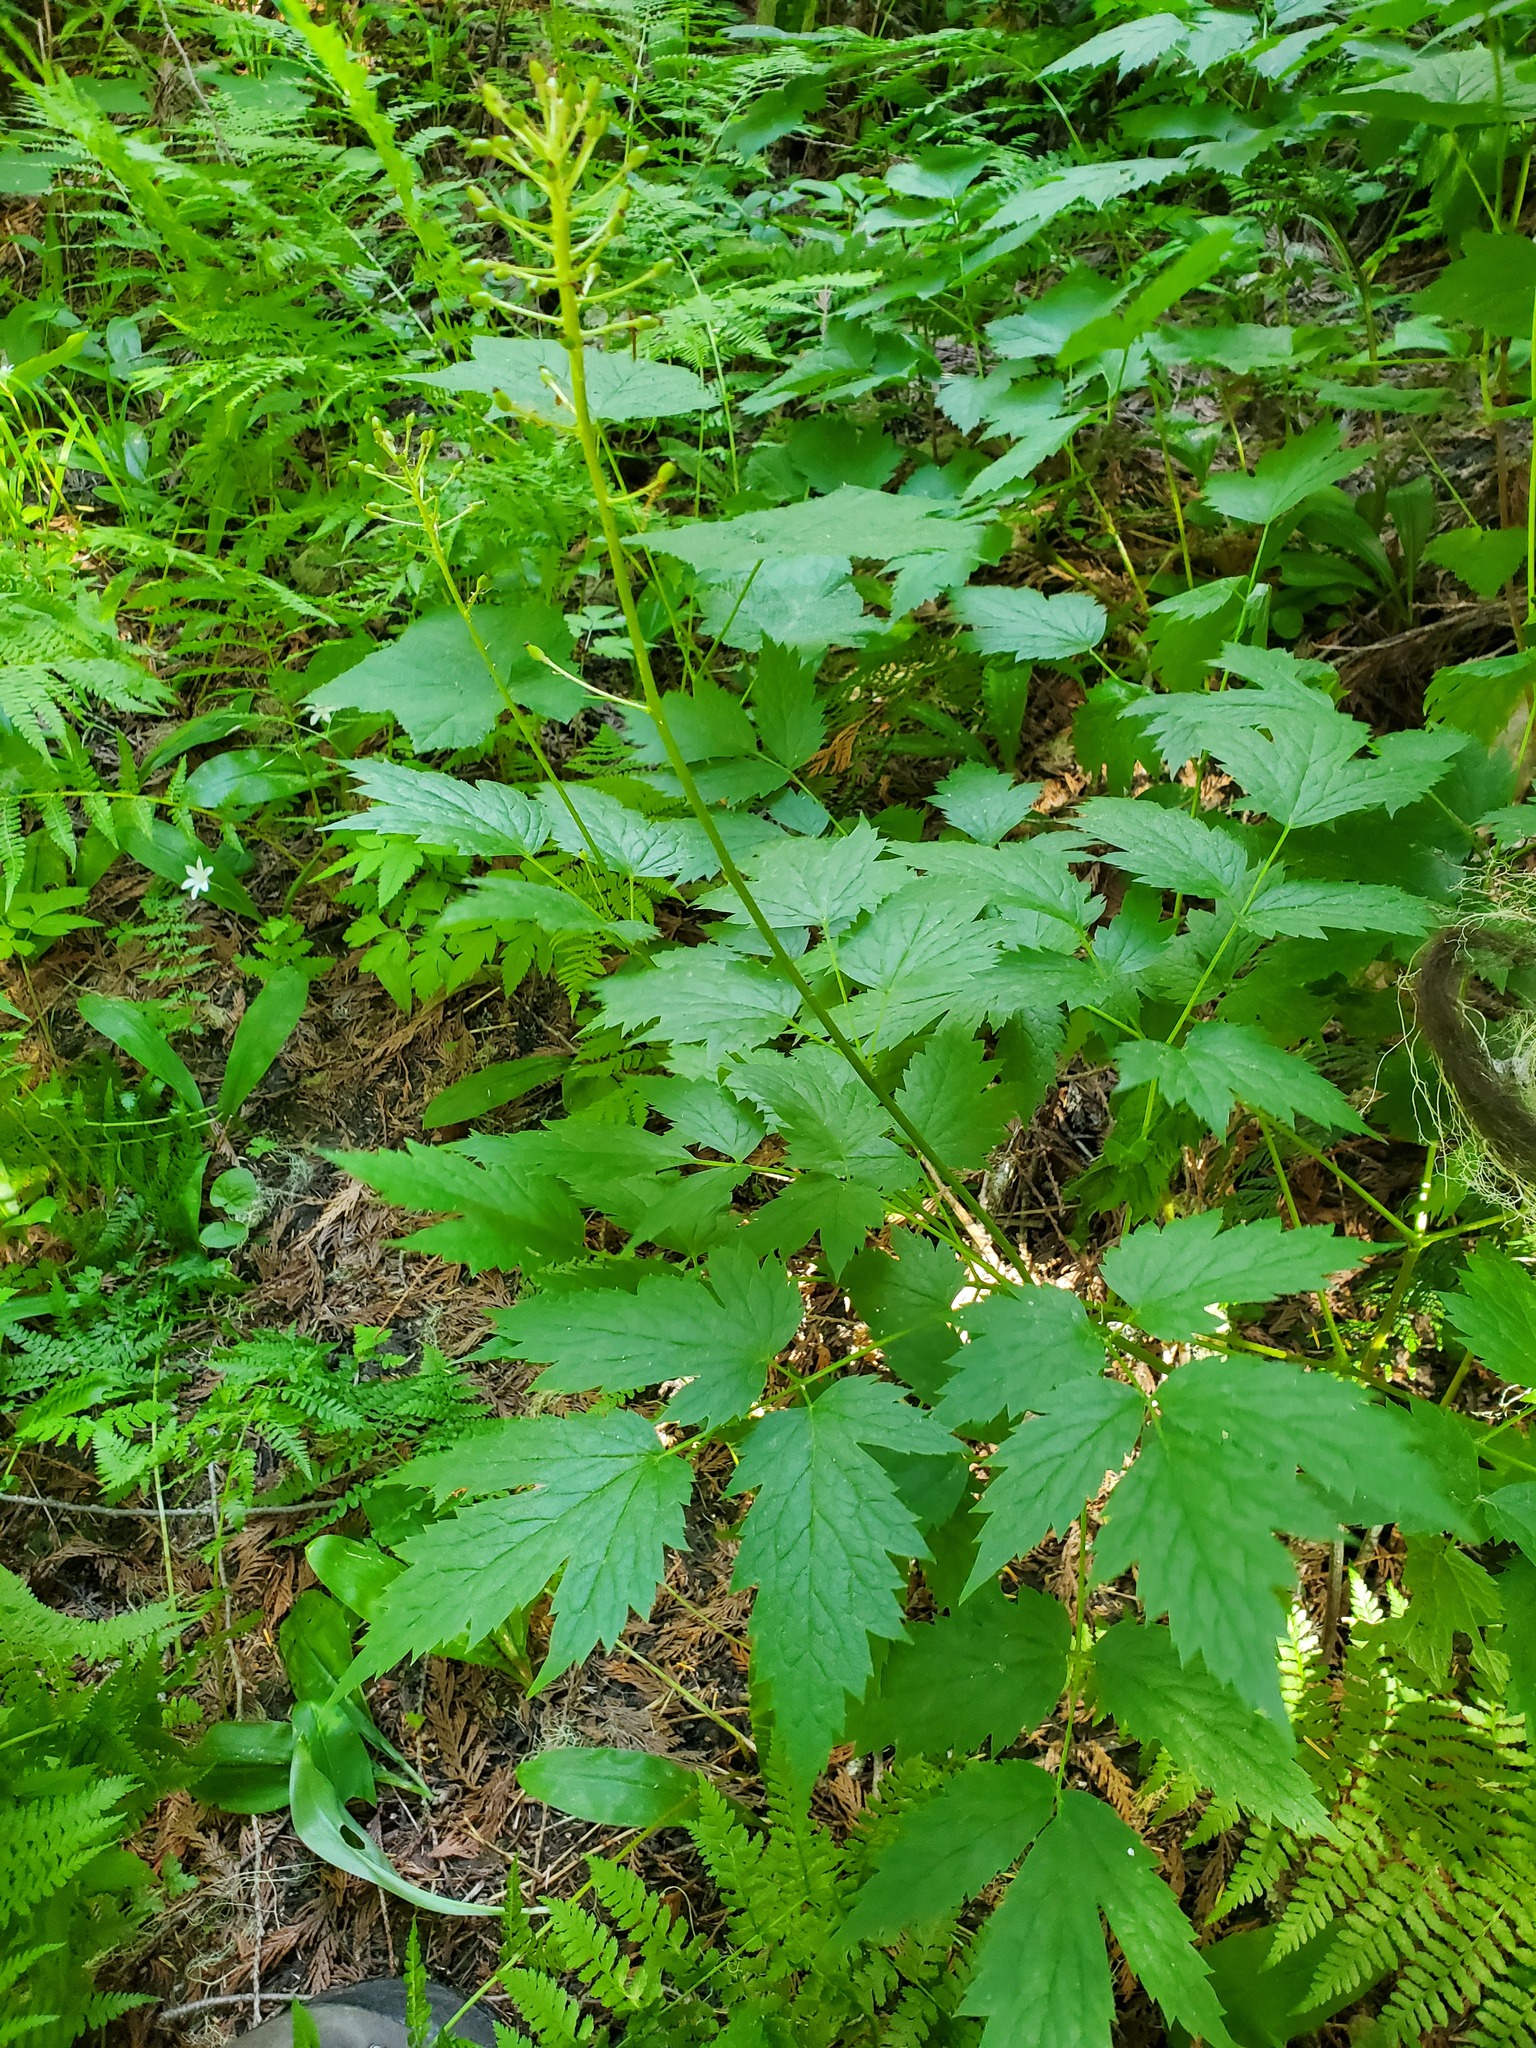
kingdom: Plantae
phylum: Tracheophyta
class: Magnoliopsida
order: Ranunculales
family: Ranunculaceae
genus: Actaea
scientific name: Actaea rubra
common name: Red baneberry
